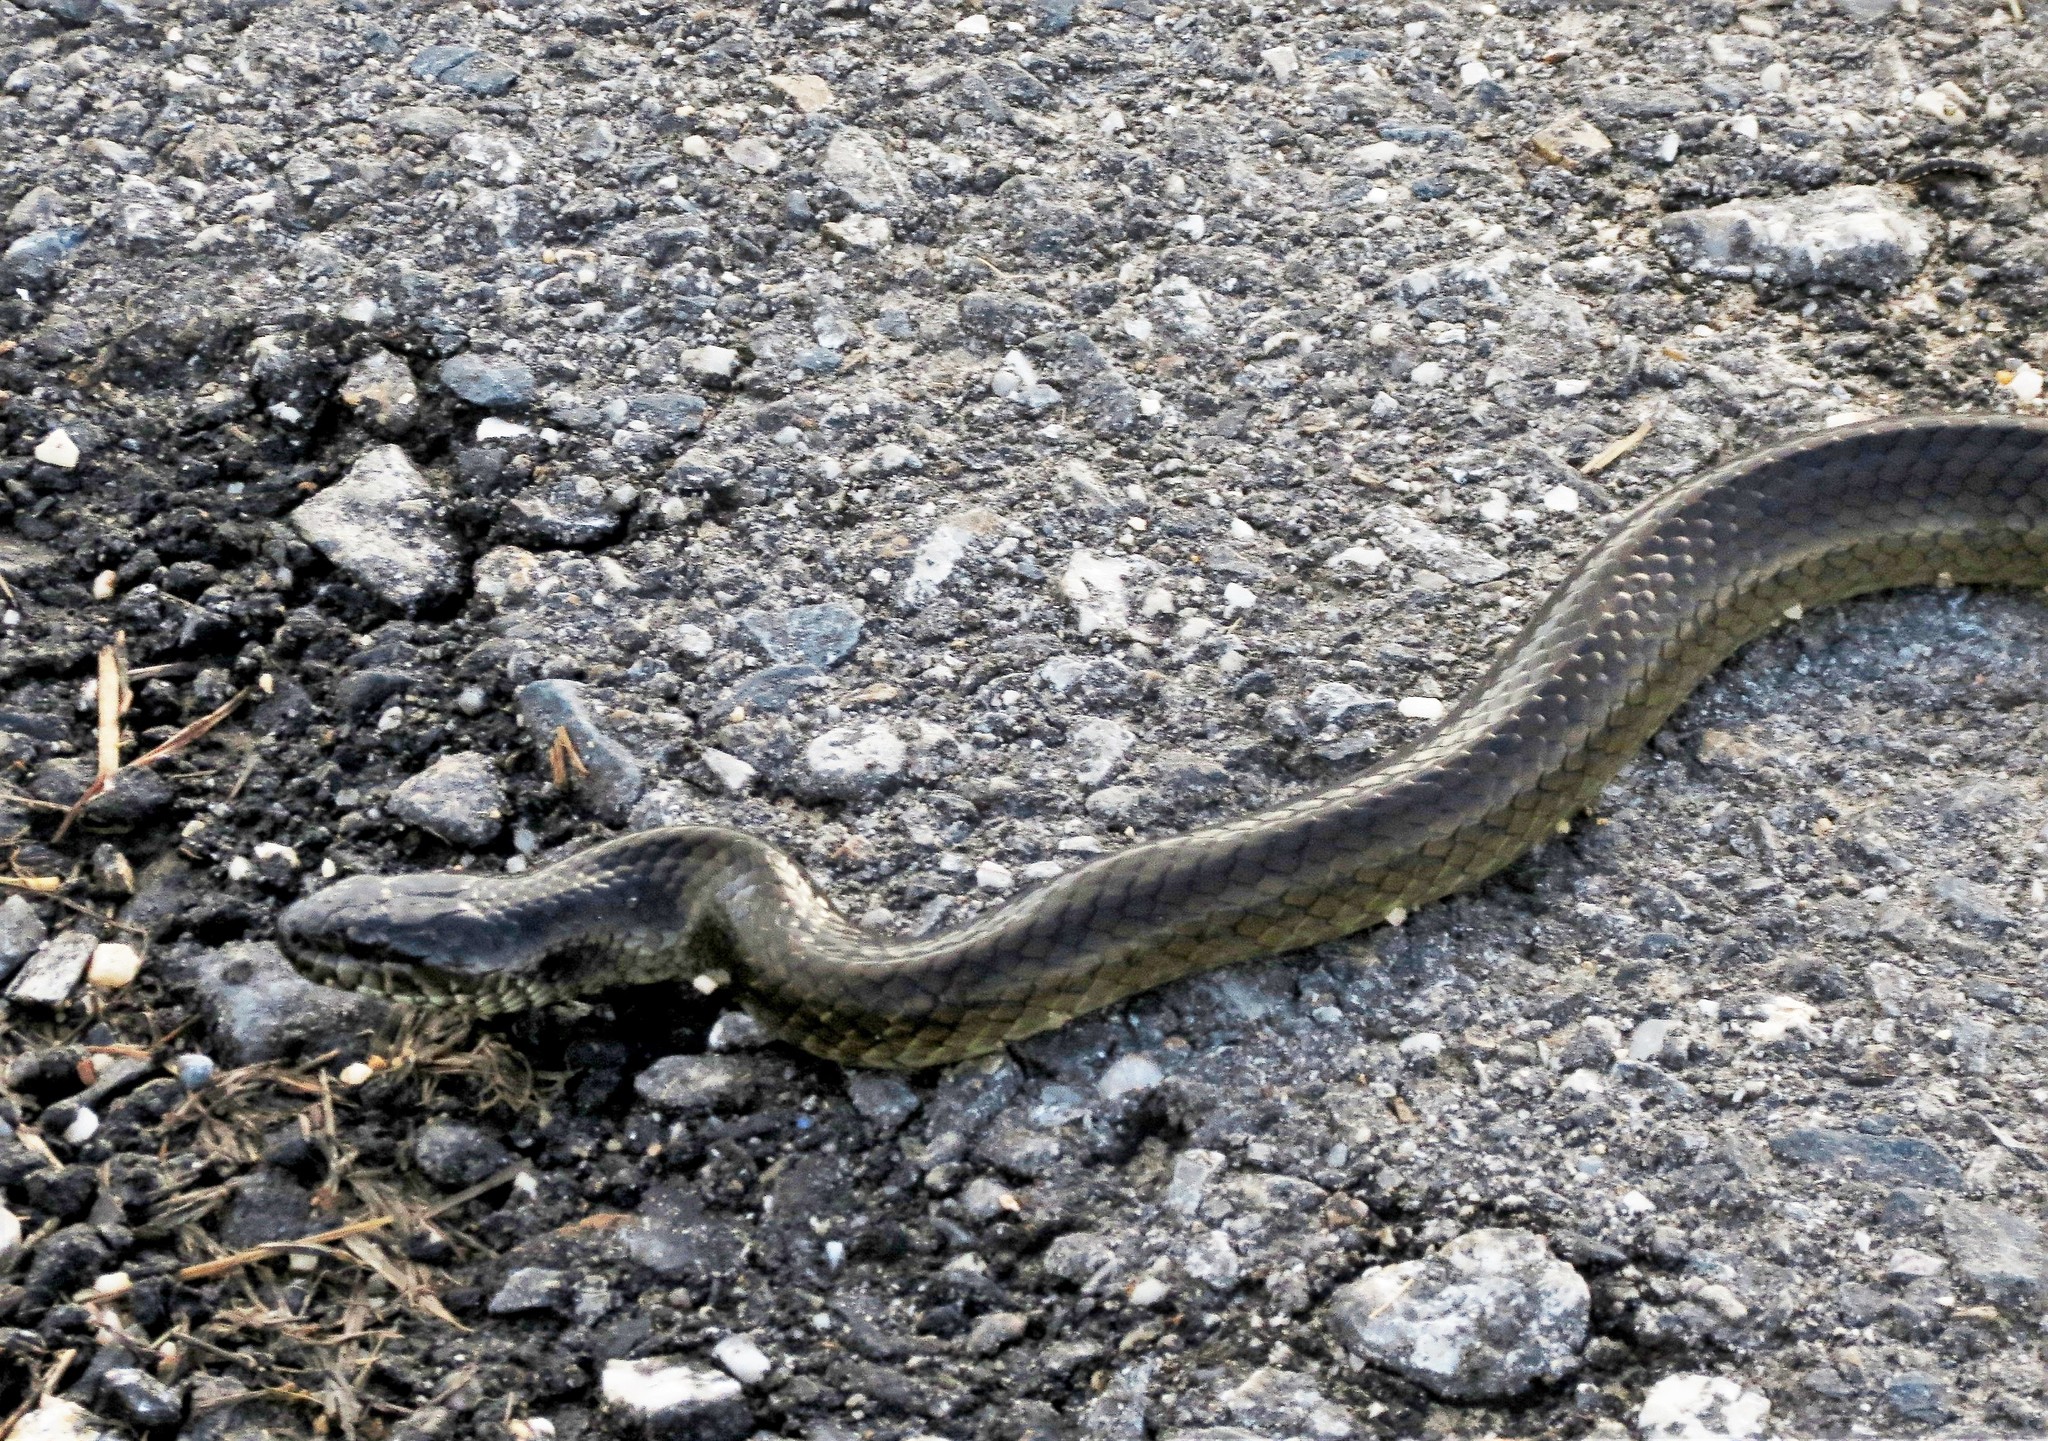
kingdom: Animalia
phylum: Chordata
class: Squamata
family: Colubridae
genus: Erythrolamprus
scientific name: Erythrolamprus cobella
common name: Mangrove snak
